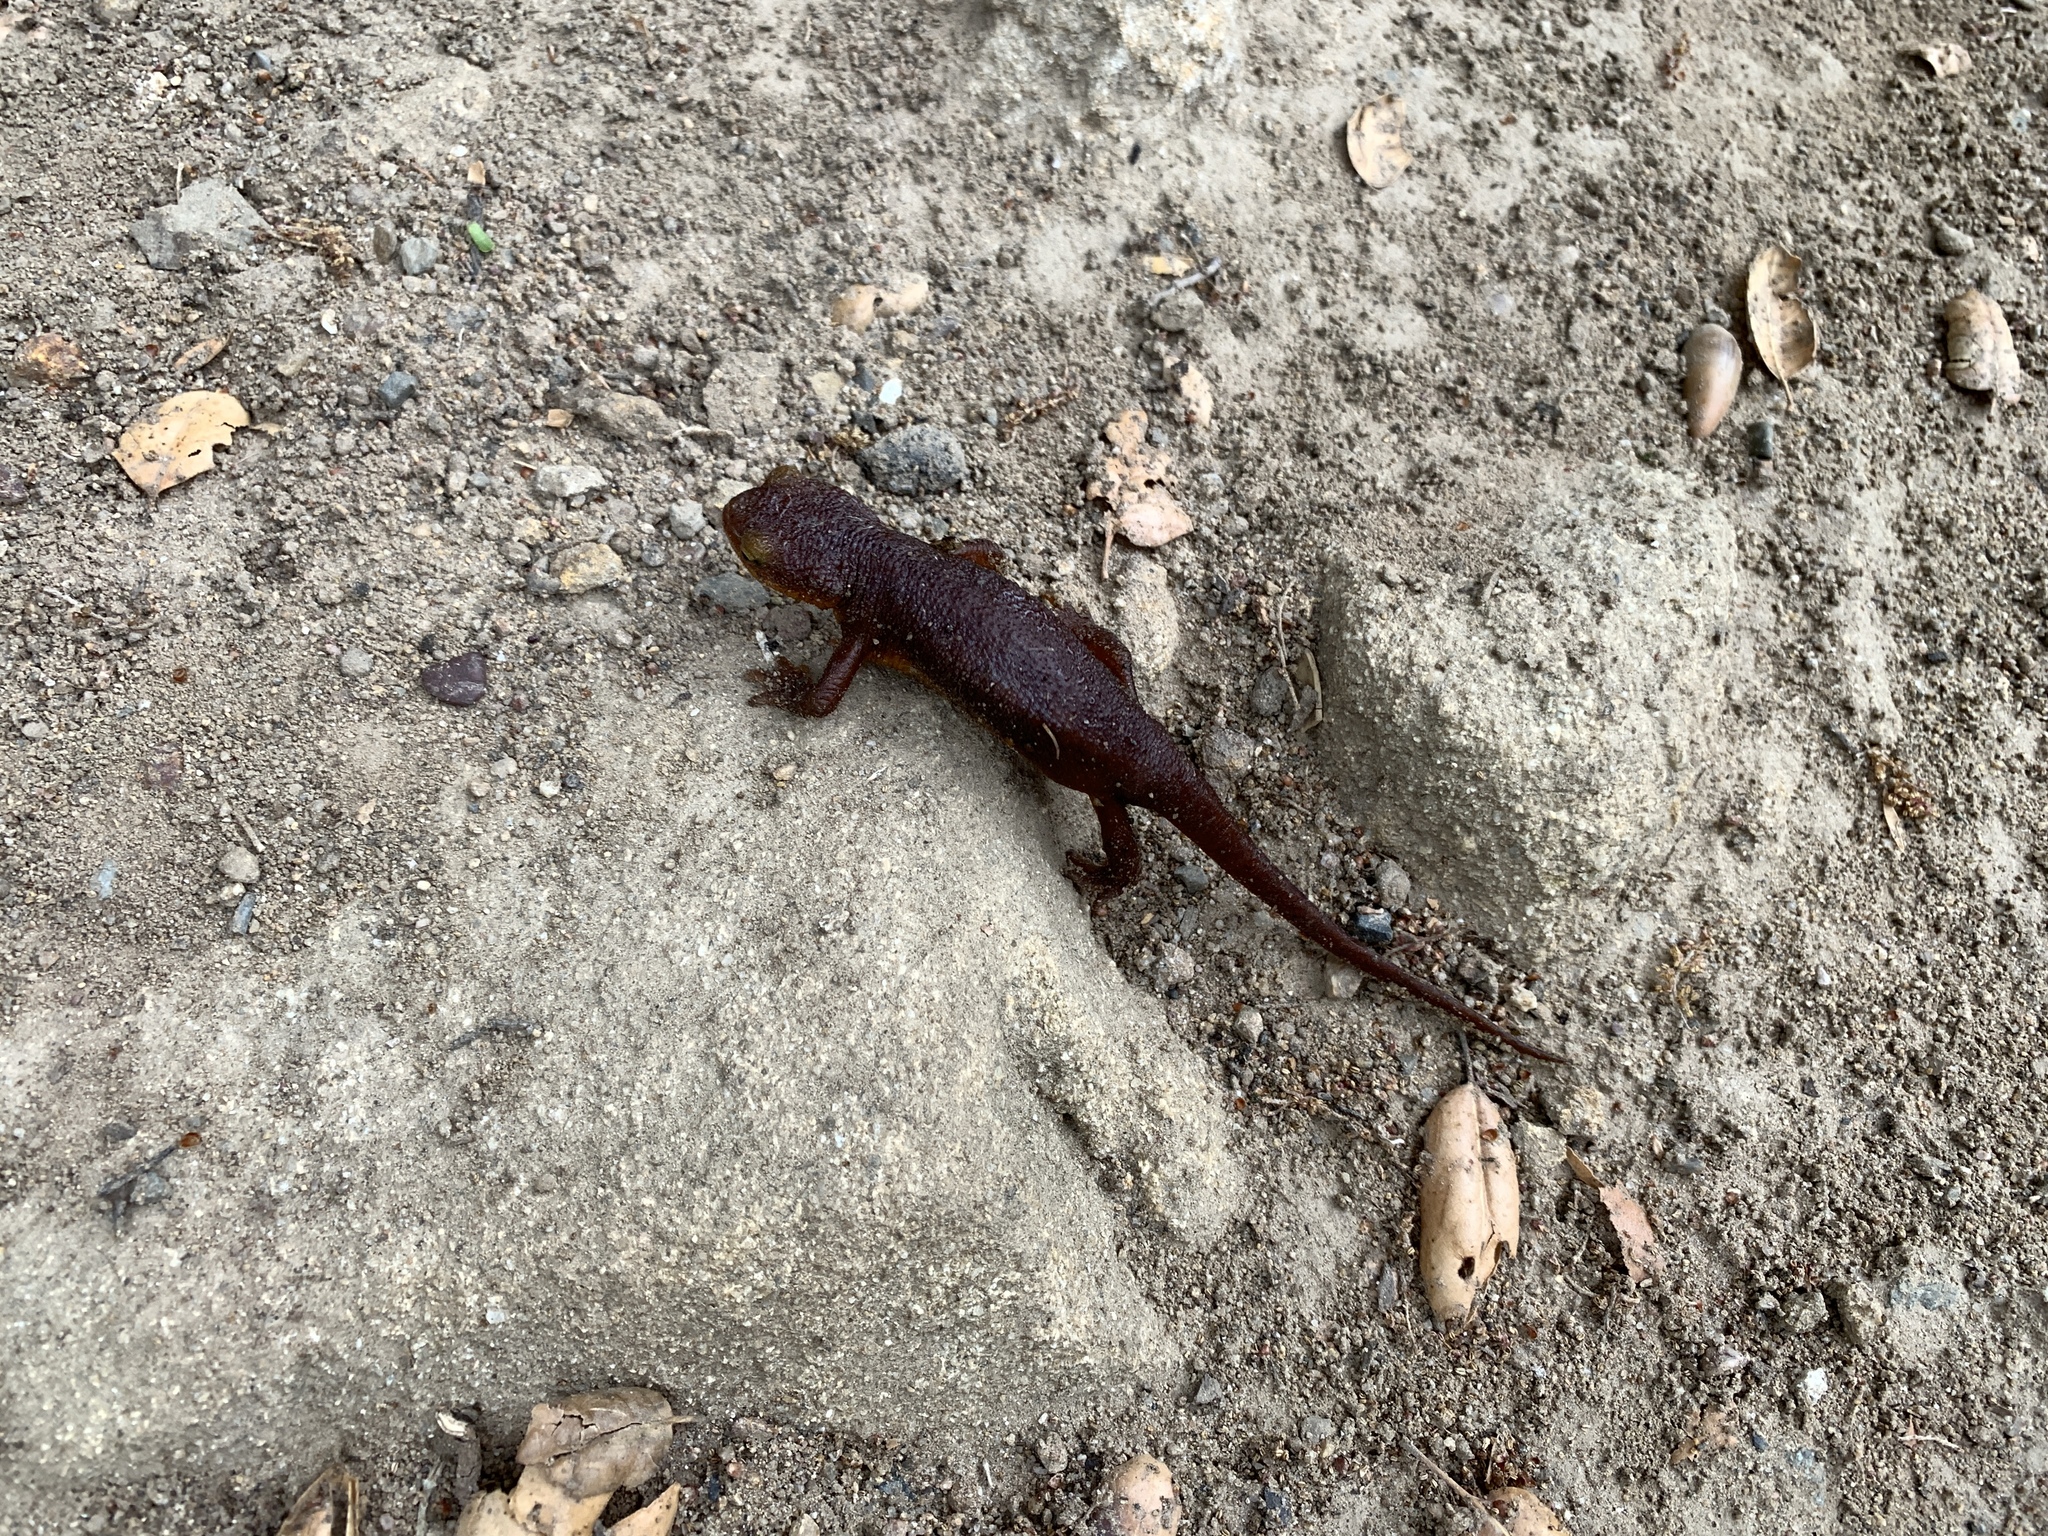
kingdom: Animalia
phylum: Chordata
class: Amphibia
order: Caudata
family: Salamandridae
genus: Taricha
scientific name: Taricha torosa
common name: California newt
